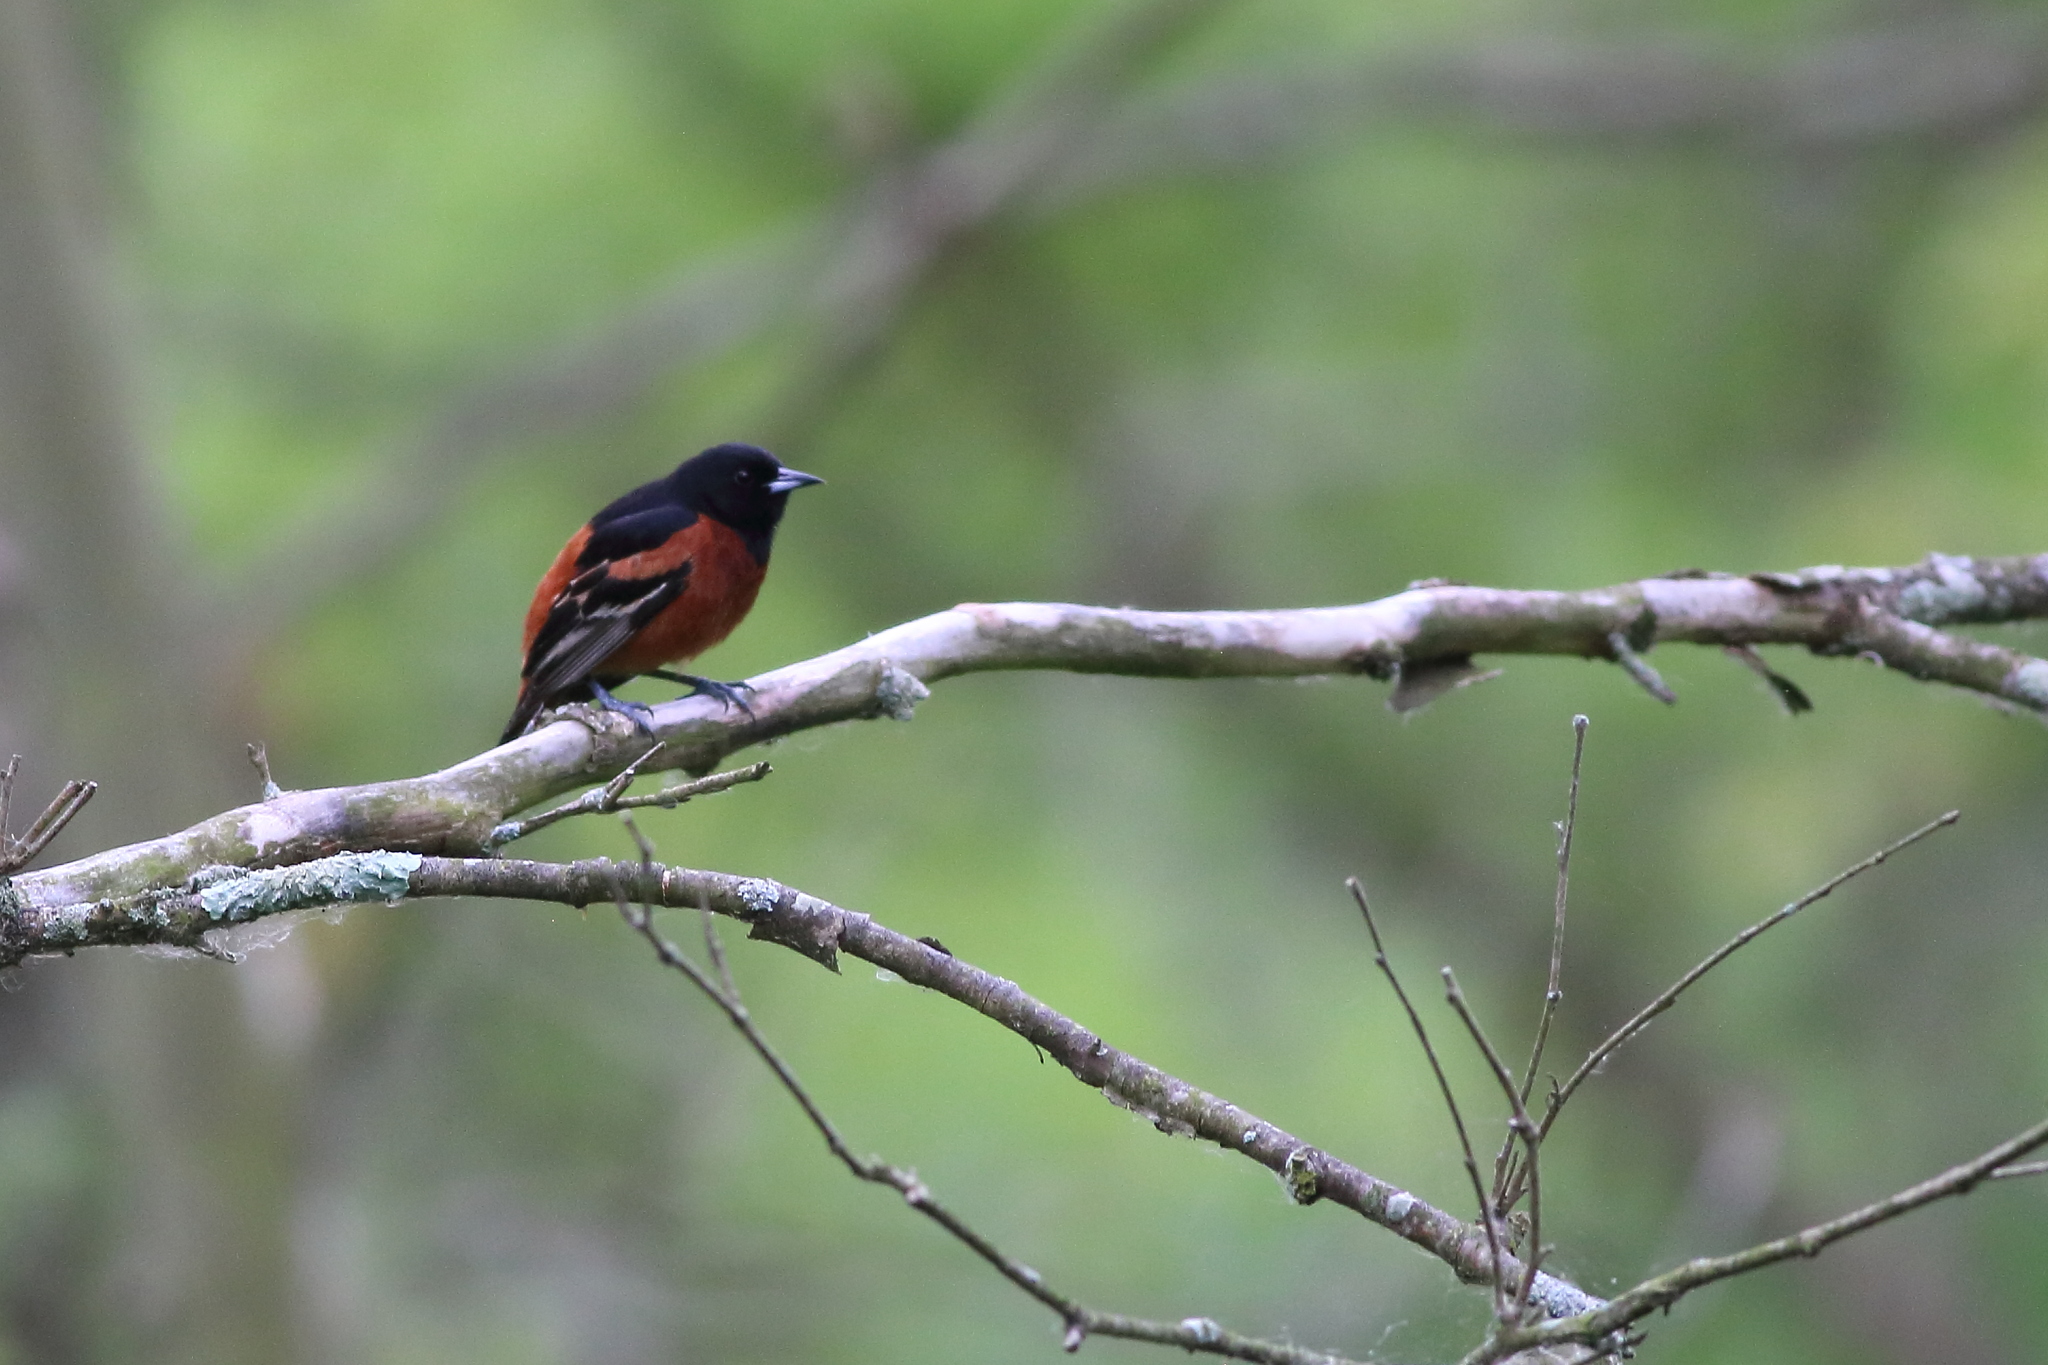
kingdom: Animalia
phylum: Chordata
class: Aves
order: Passeriformes
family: Icteridae
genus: Icterus
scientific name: Icterus spurius
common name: Orchard oriole
